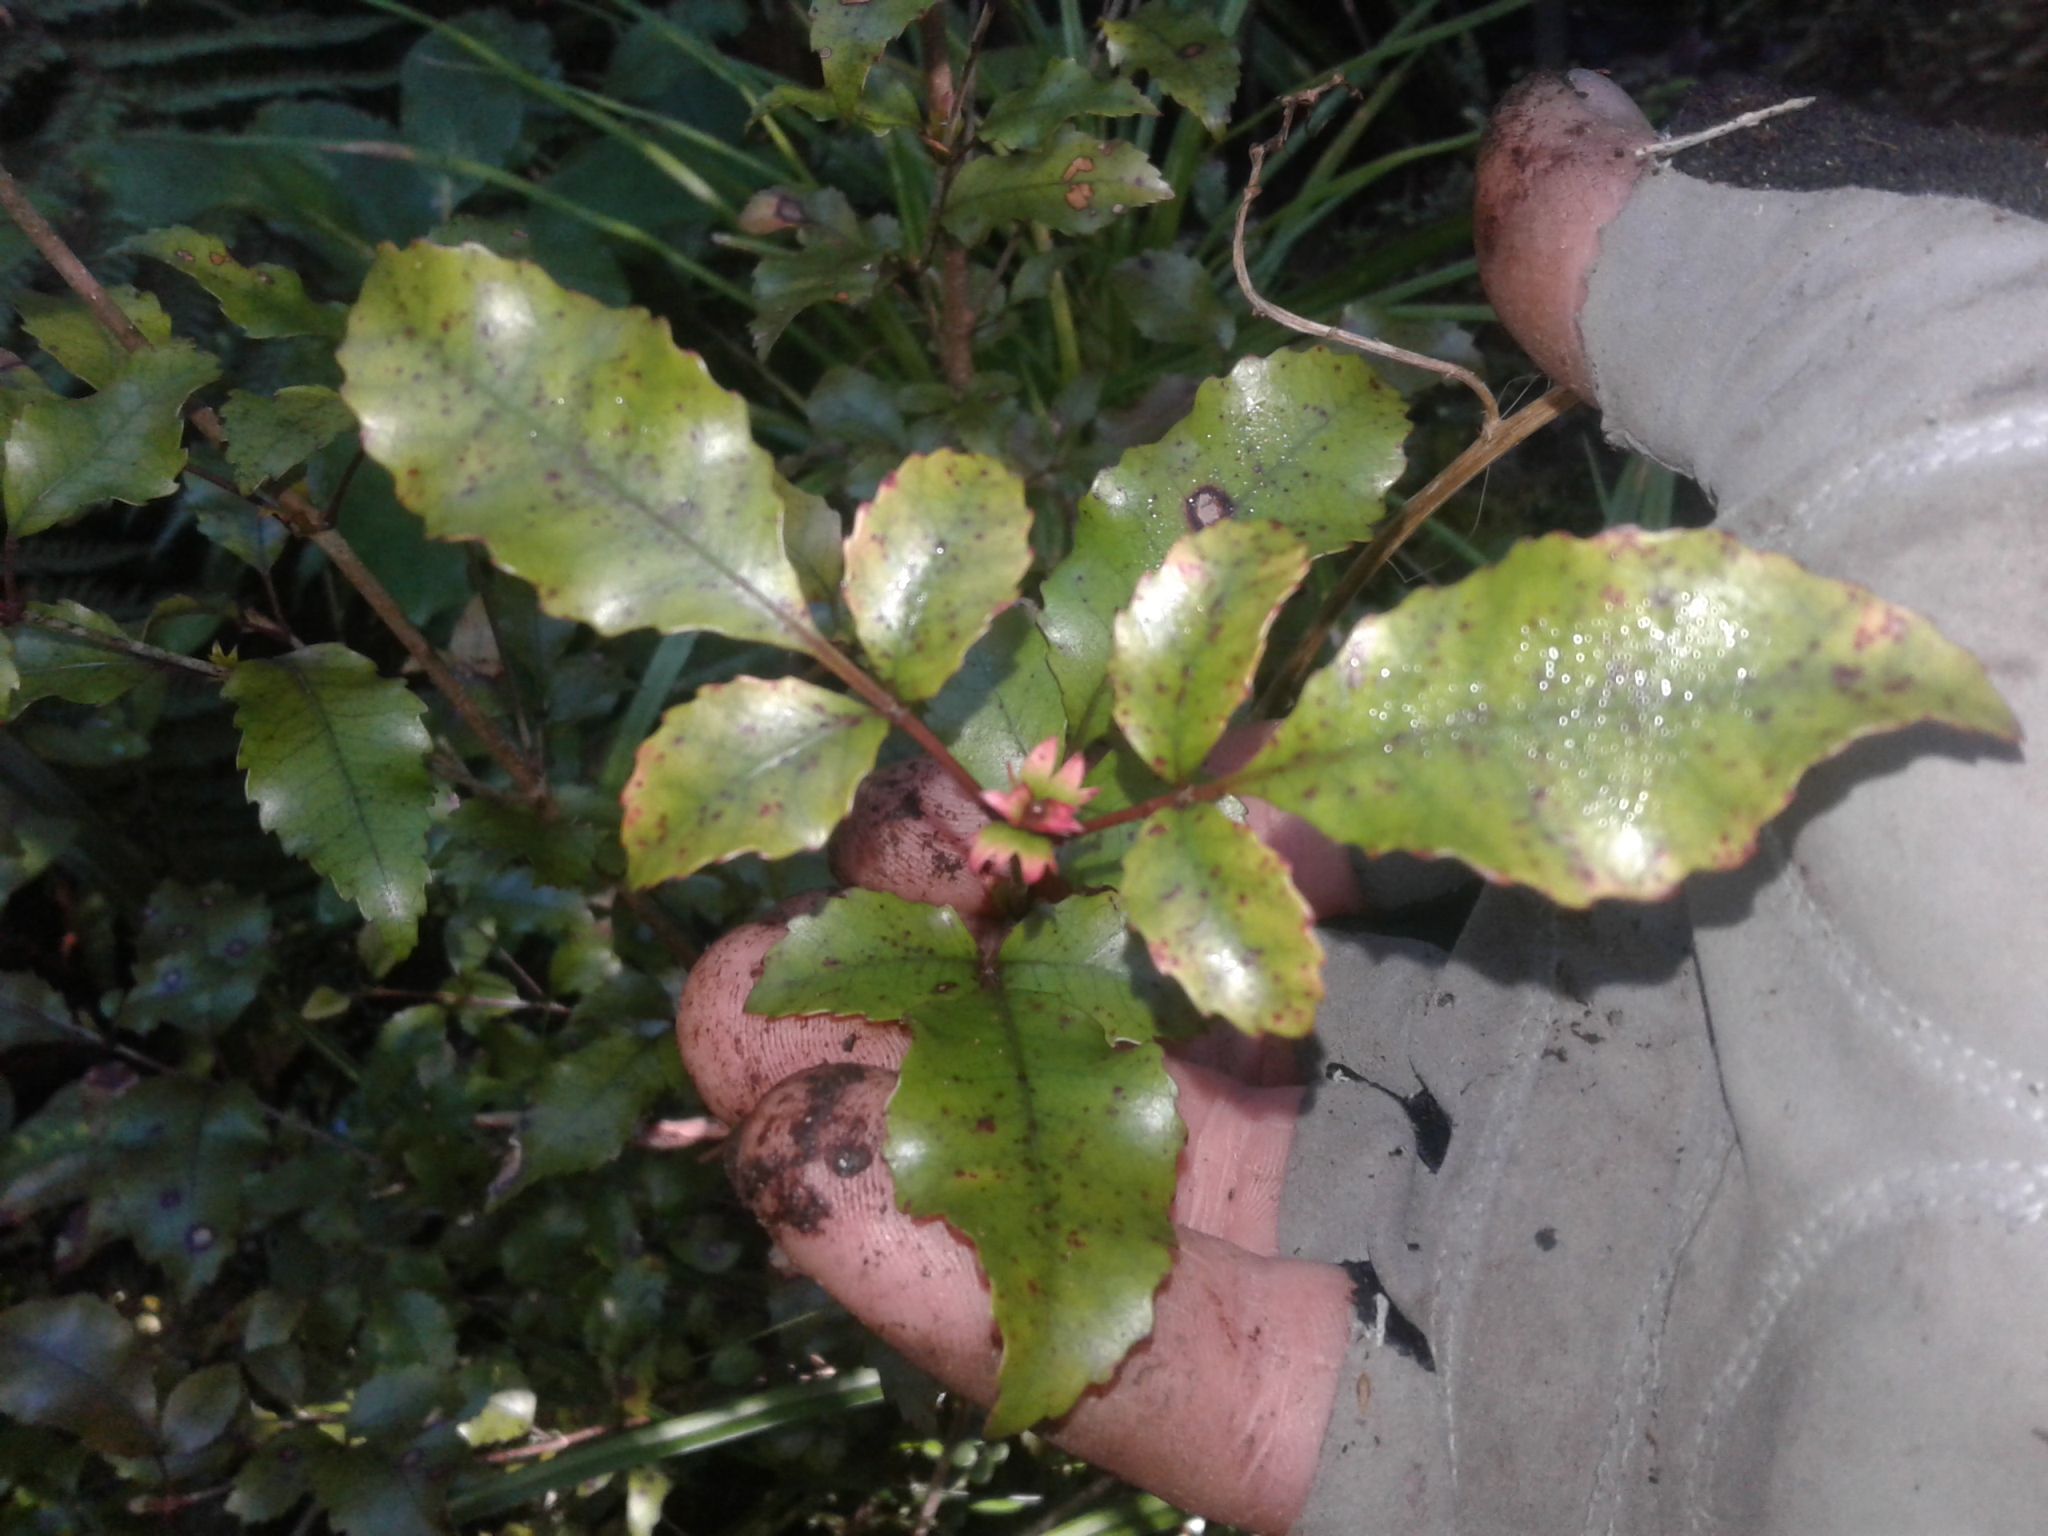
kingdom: Plantae
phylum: Tracheophyta
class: Magnoliopsida
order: Oxalidales
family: Cunoniaceae
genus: Pterophylla
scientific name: Pterophylla racemosa
